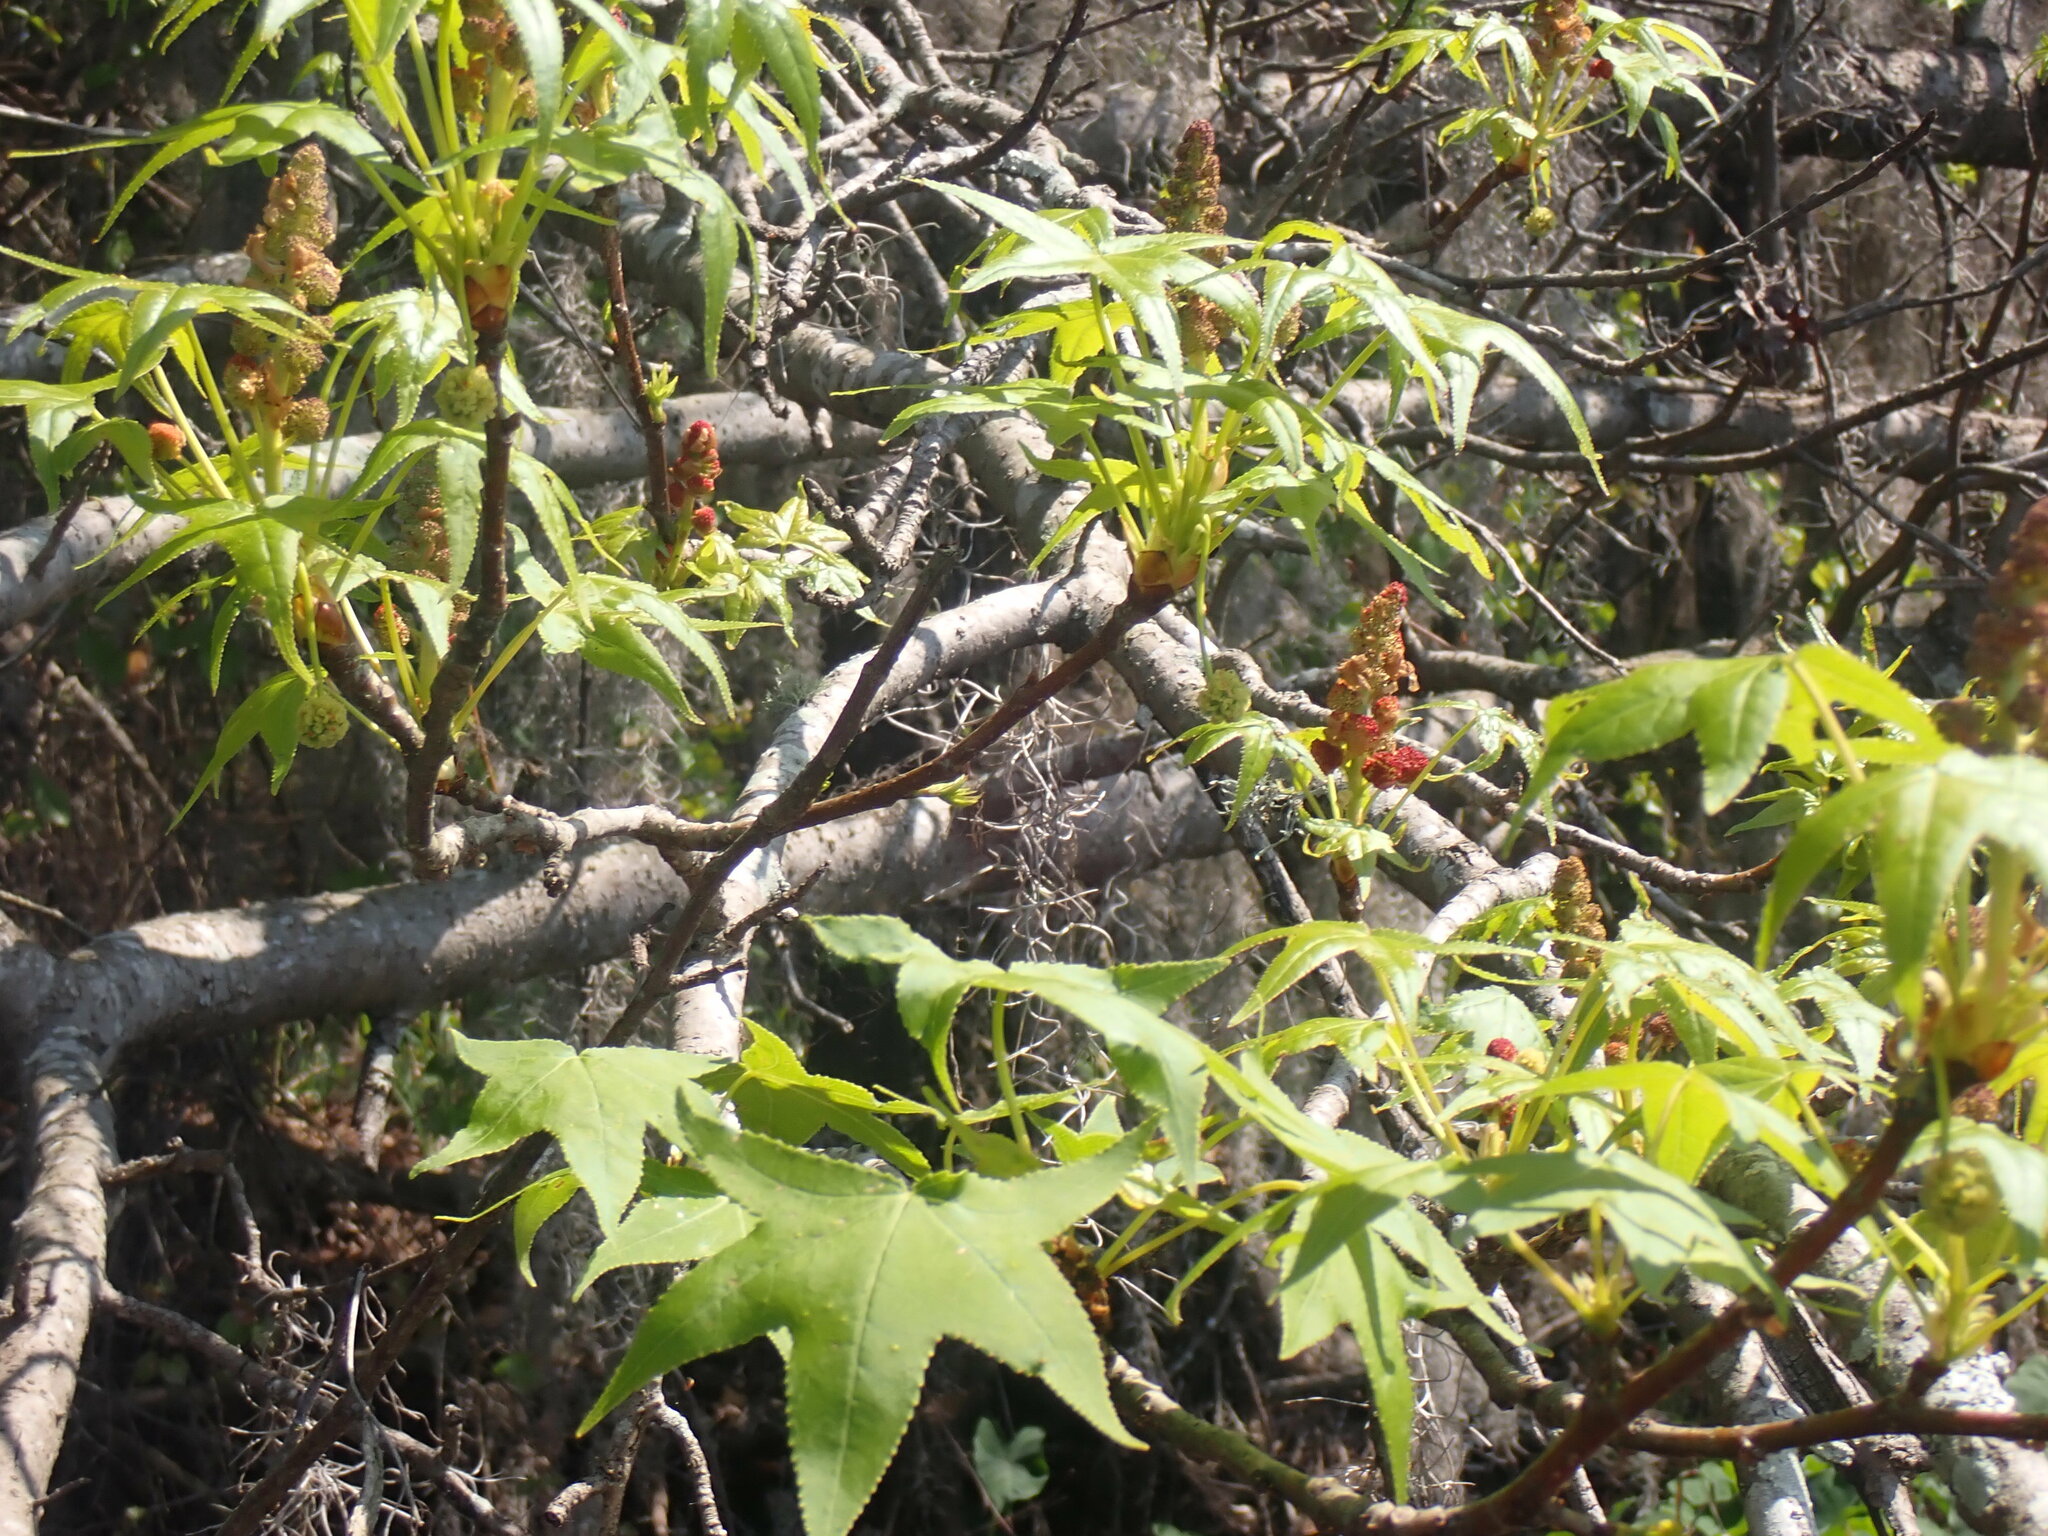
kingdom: Plantae
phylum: Tracheophyta
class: Magnoliopsida
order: Saxifragales
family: Altingiaceae
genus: Liquidambar
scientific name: Liquidambar styraciflua
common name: Sweet gum
